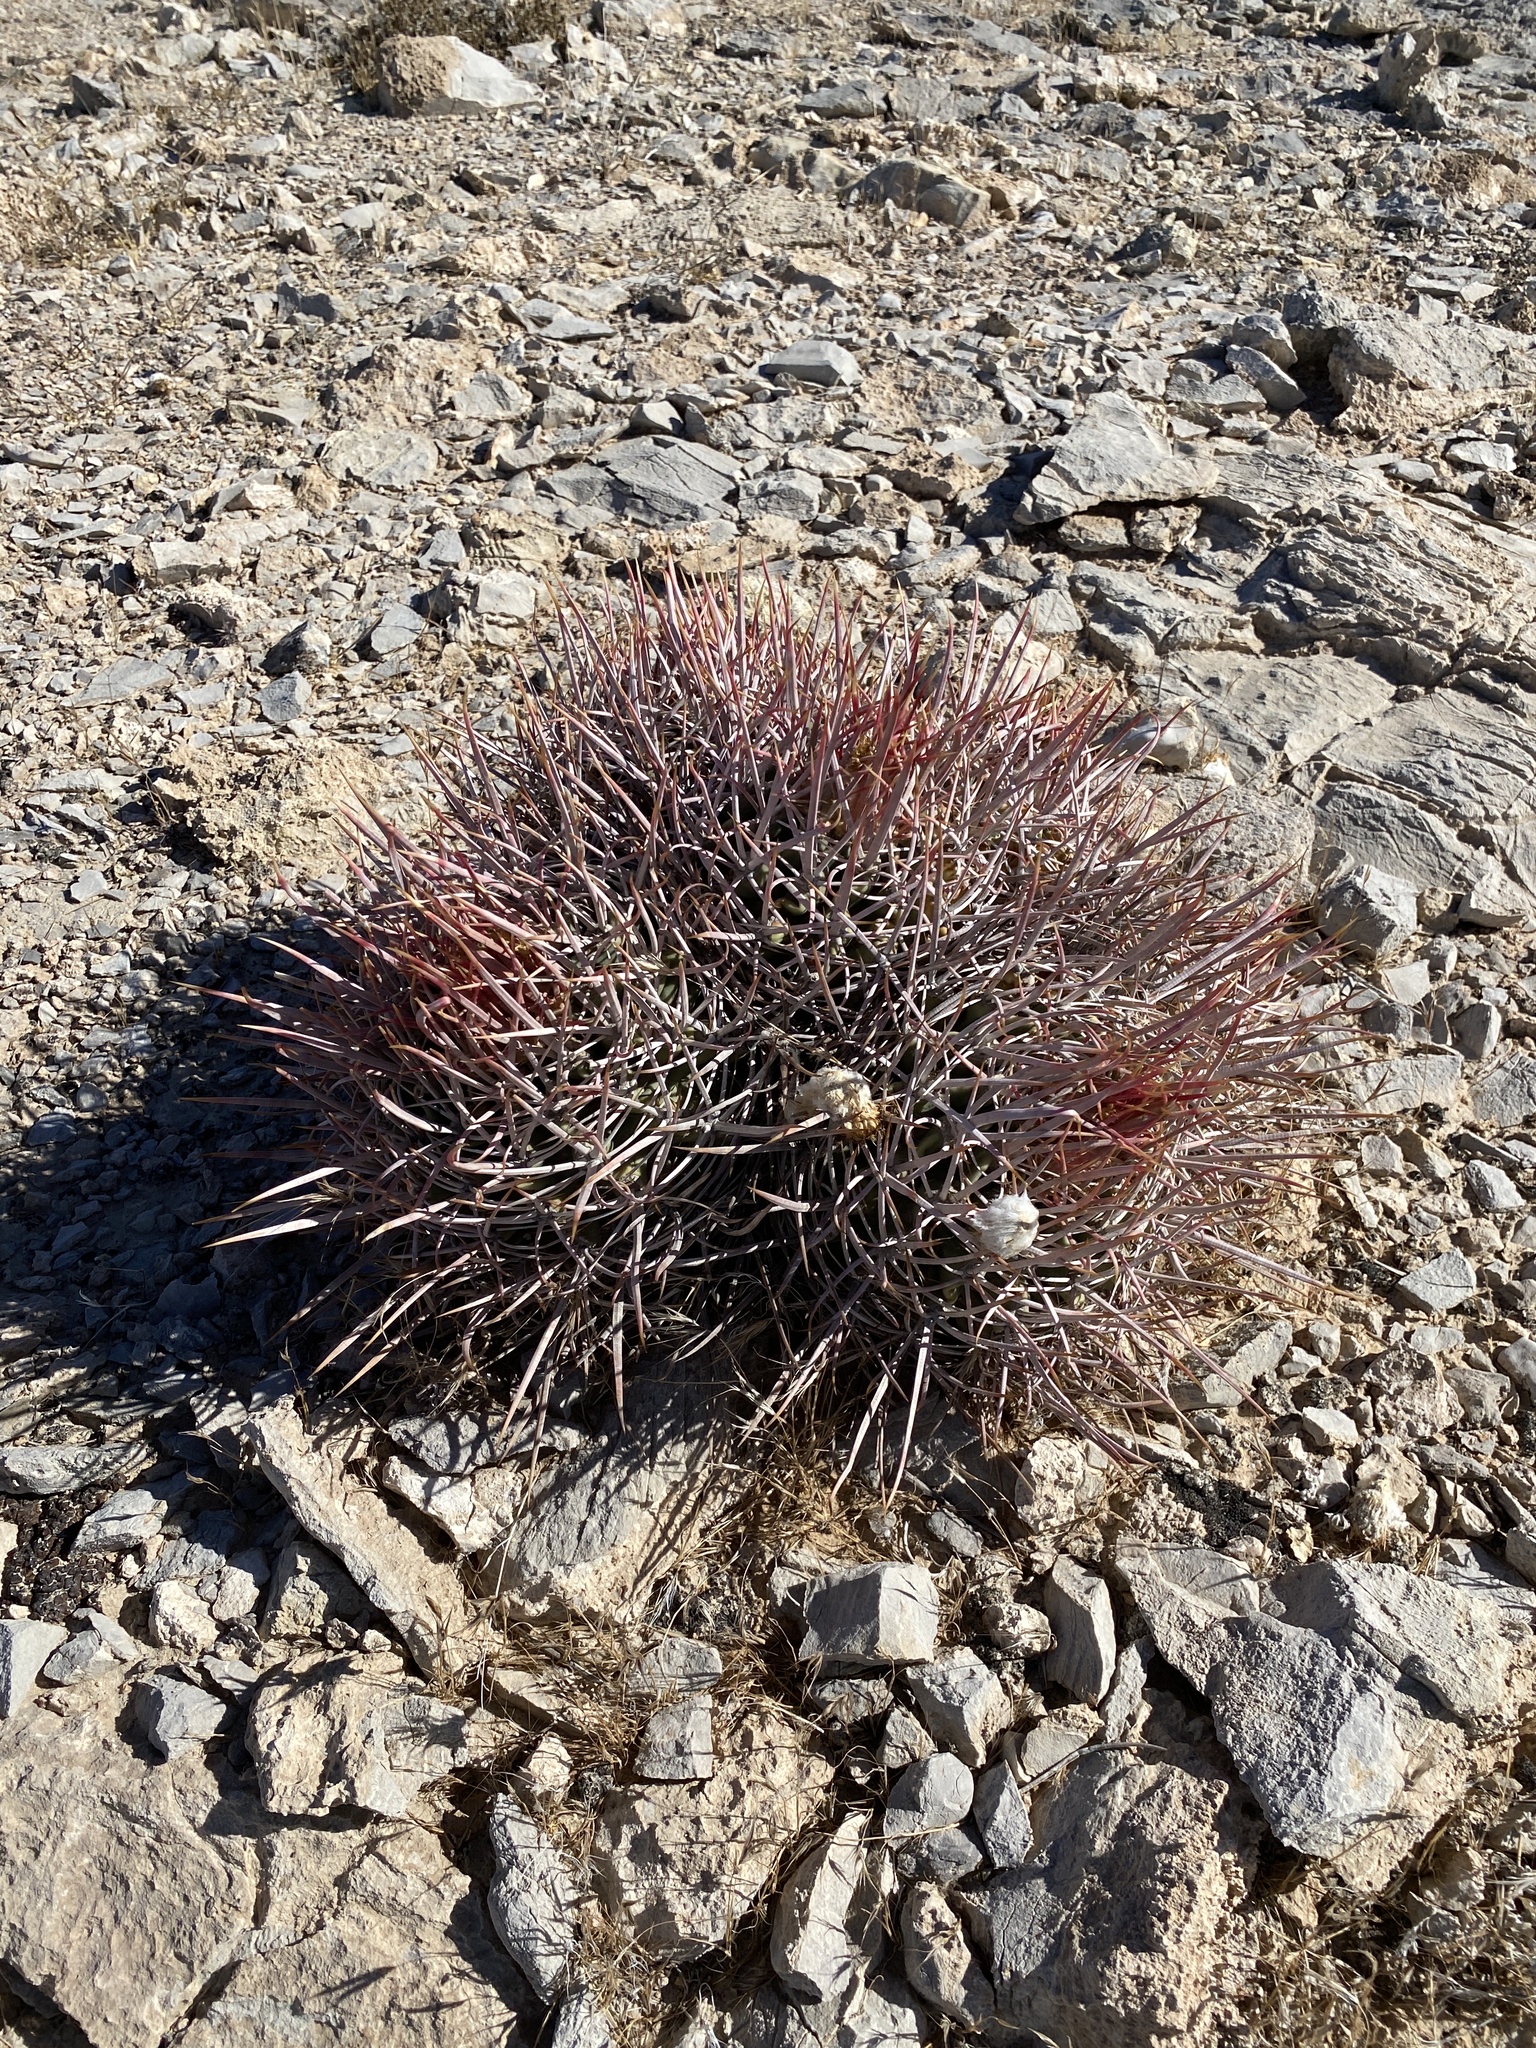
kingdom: Plantae
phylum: Tracheophyta
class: Magnoliopsida
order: Caryophyllales
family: Cactaceae
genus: Echinocactus
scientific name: Echinocactus polycephalus
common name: Cottontop cactus
